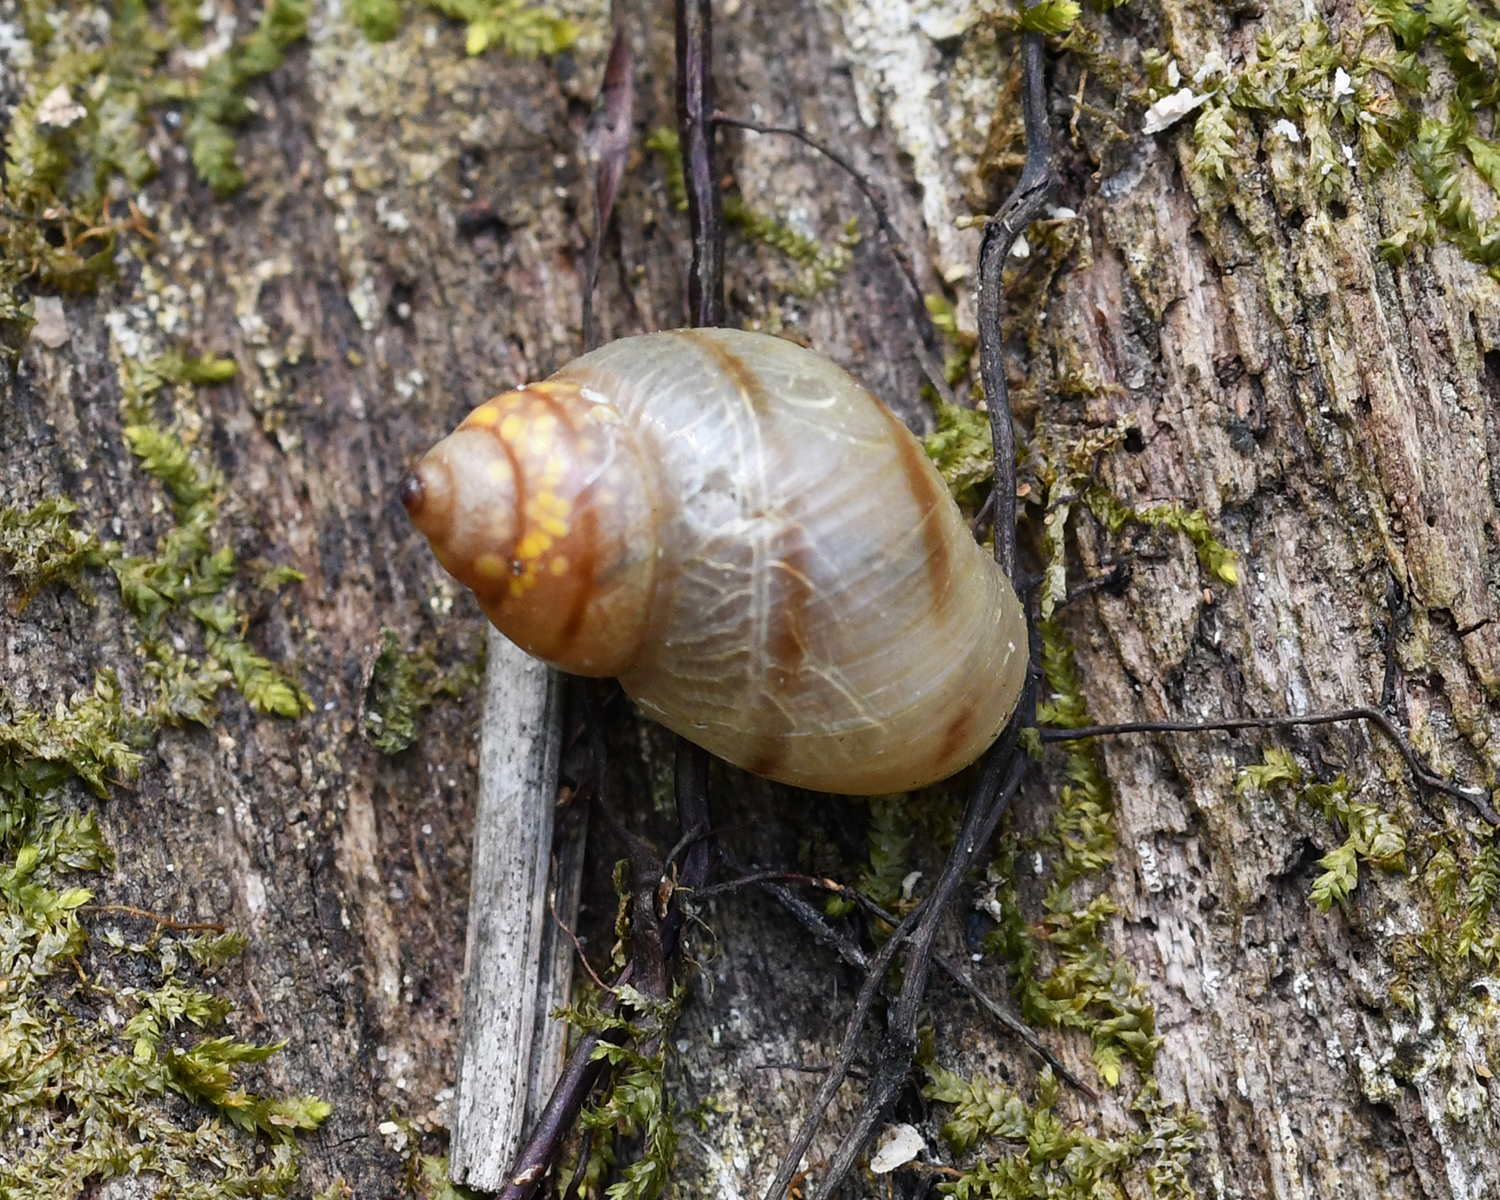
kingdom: Animalia
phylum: Mollusca
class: Gastropoda
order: Stylommatophora
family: Bulimulidae
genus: Drymaeus
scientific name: Drymaeus
